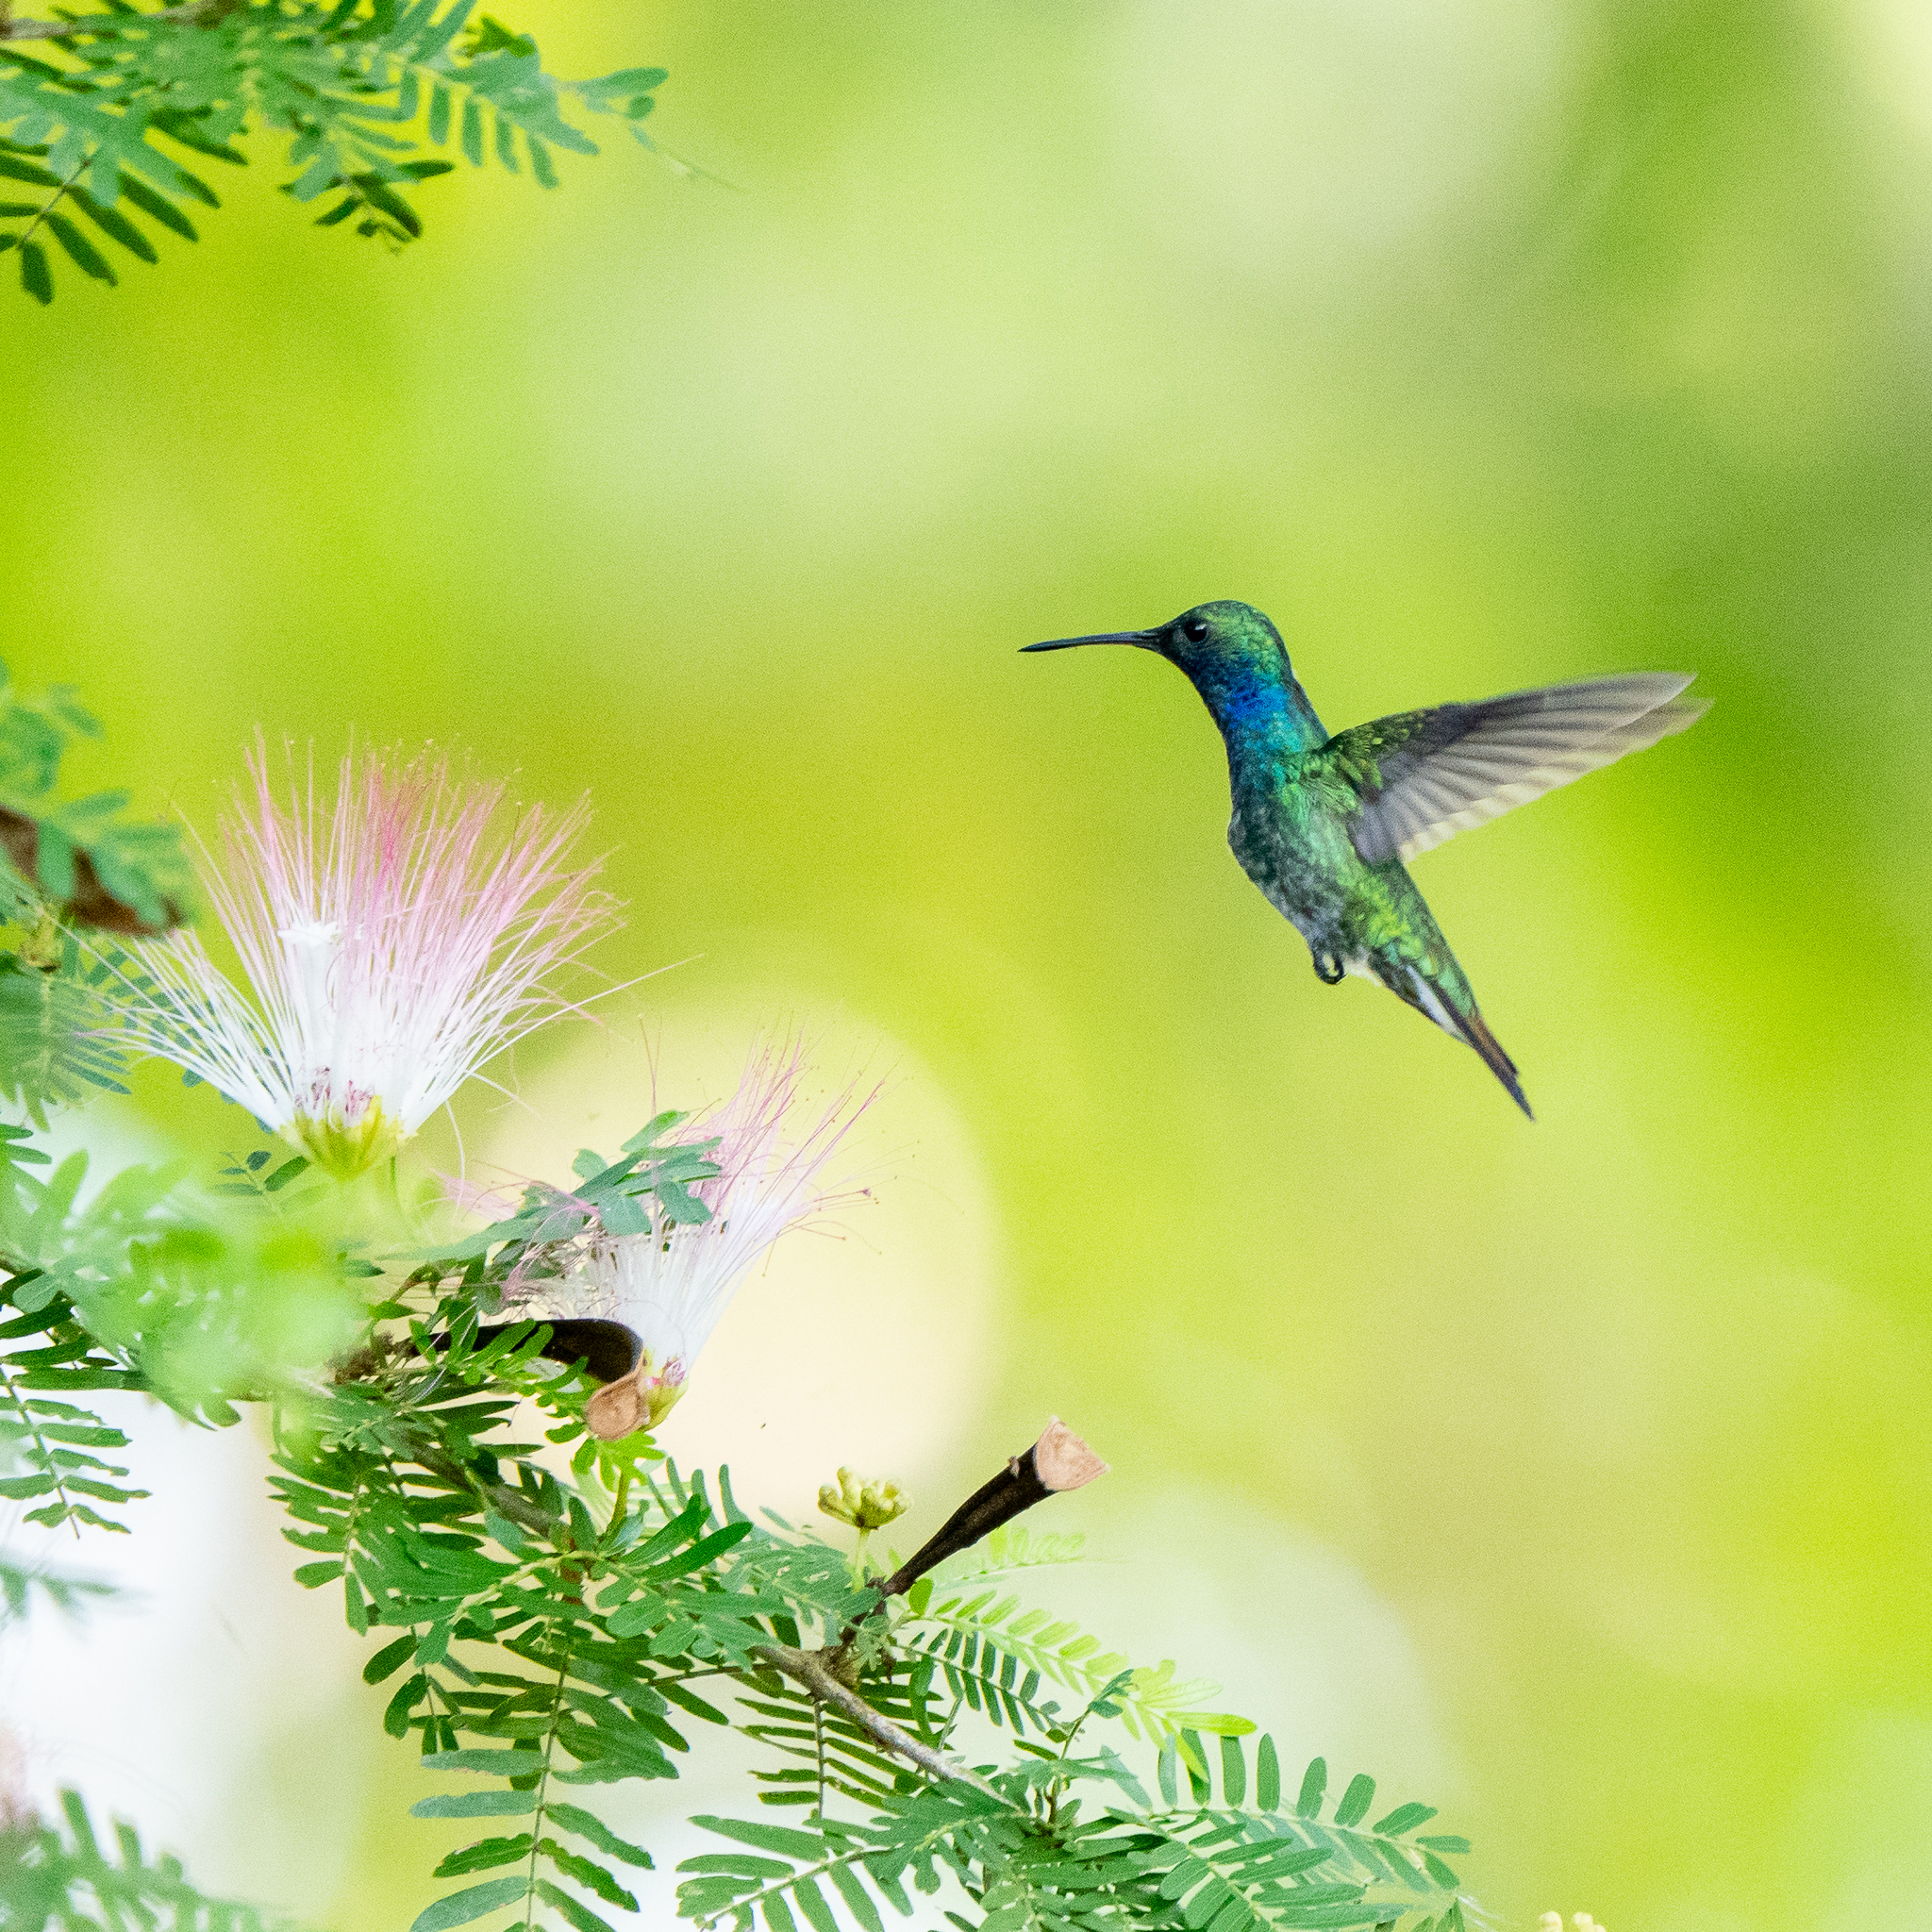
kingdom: Animalia
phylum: Chordata
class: Aves
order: Apodiformes
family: Trochilidae
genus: Chrysuronia
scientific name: Chrysuronia coeruleogularis
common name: Sapphire-throated hummingbird
